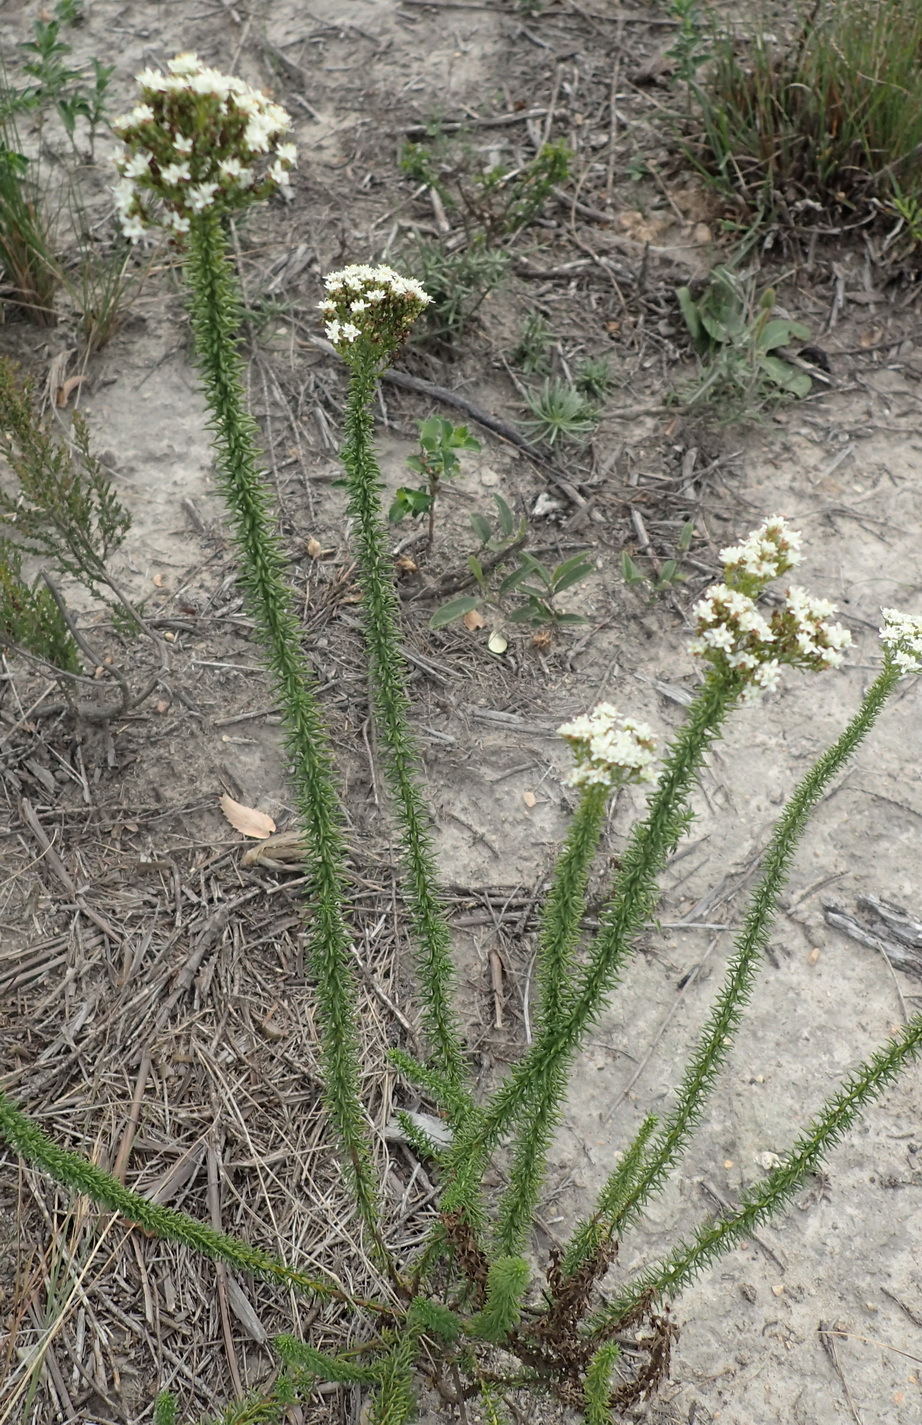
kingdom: Plantae
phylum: Tracheophyta
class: Magnoliopsida
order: Lamiales
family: Scrophulariaceae
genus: Selago
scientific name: Selago dolosa
